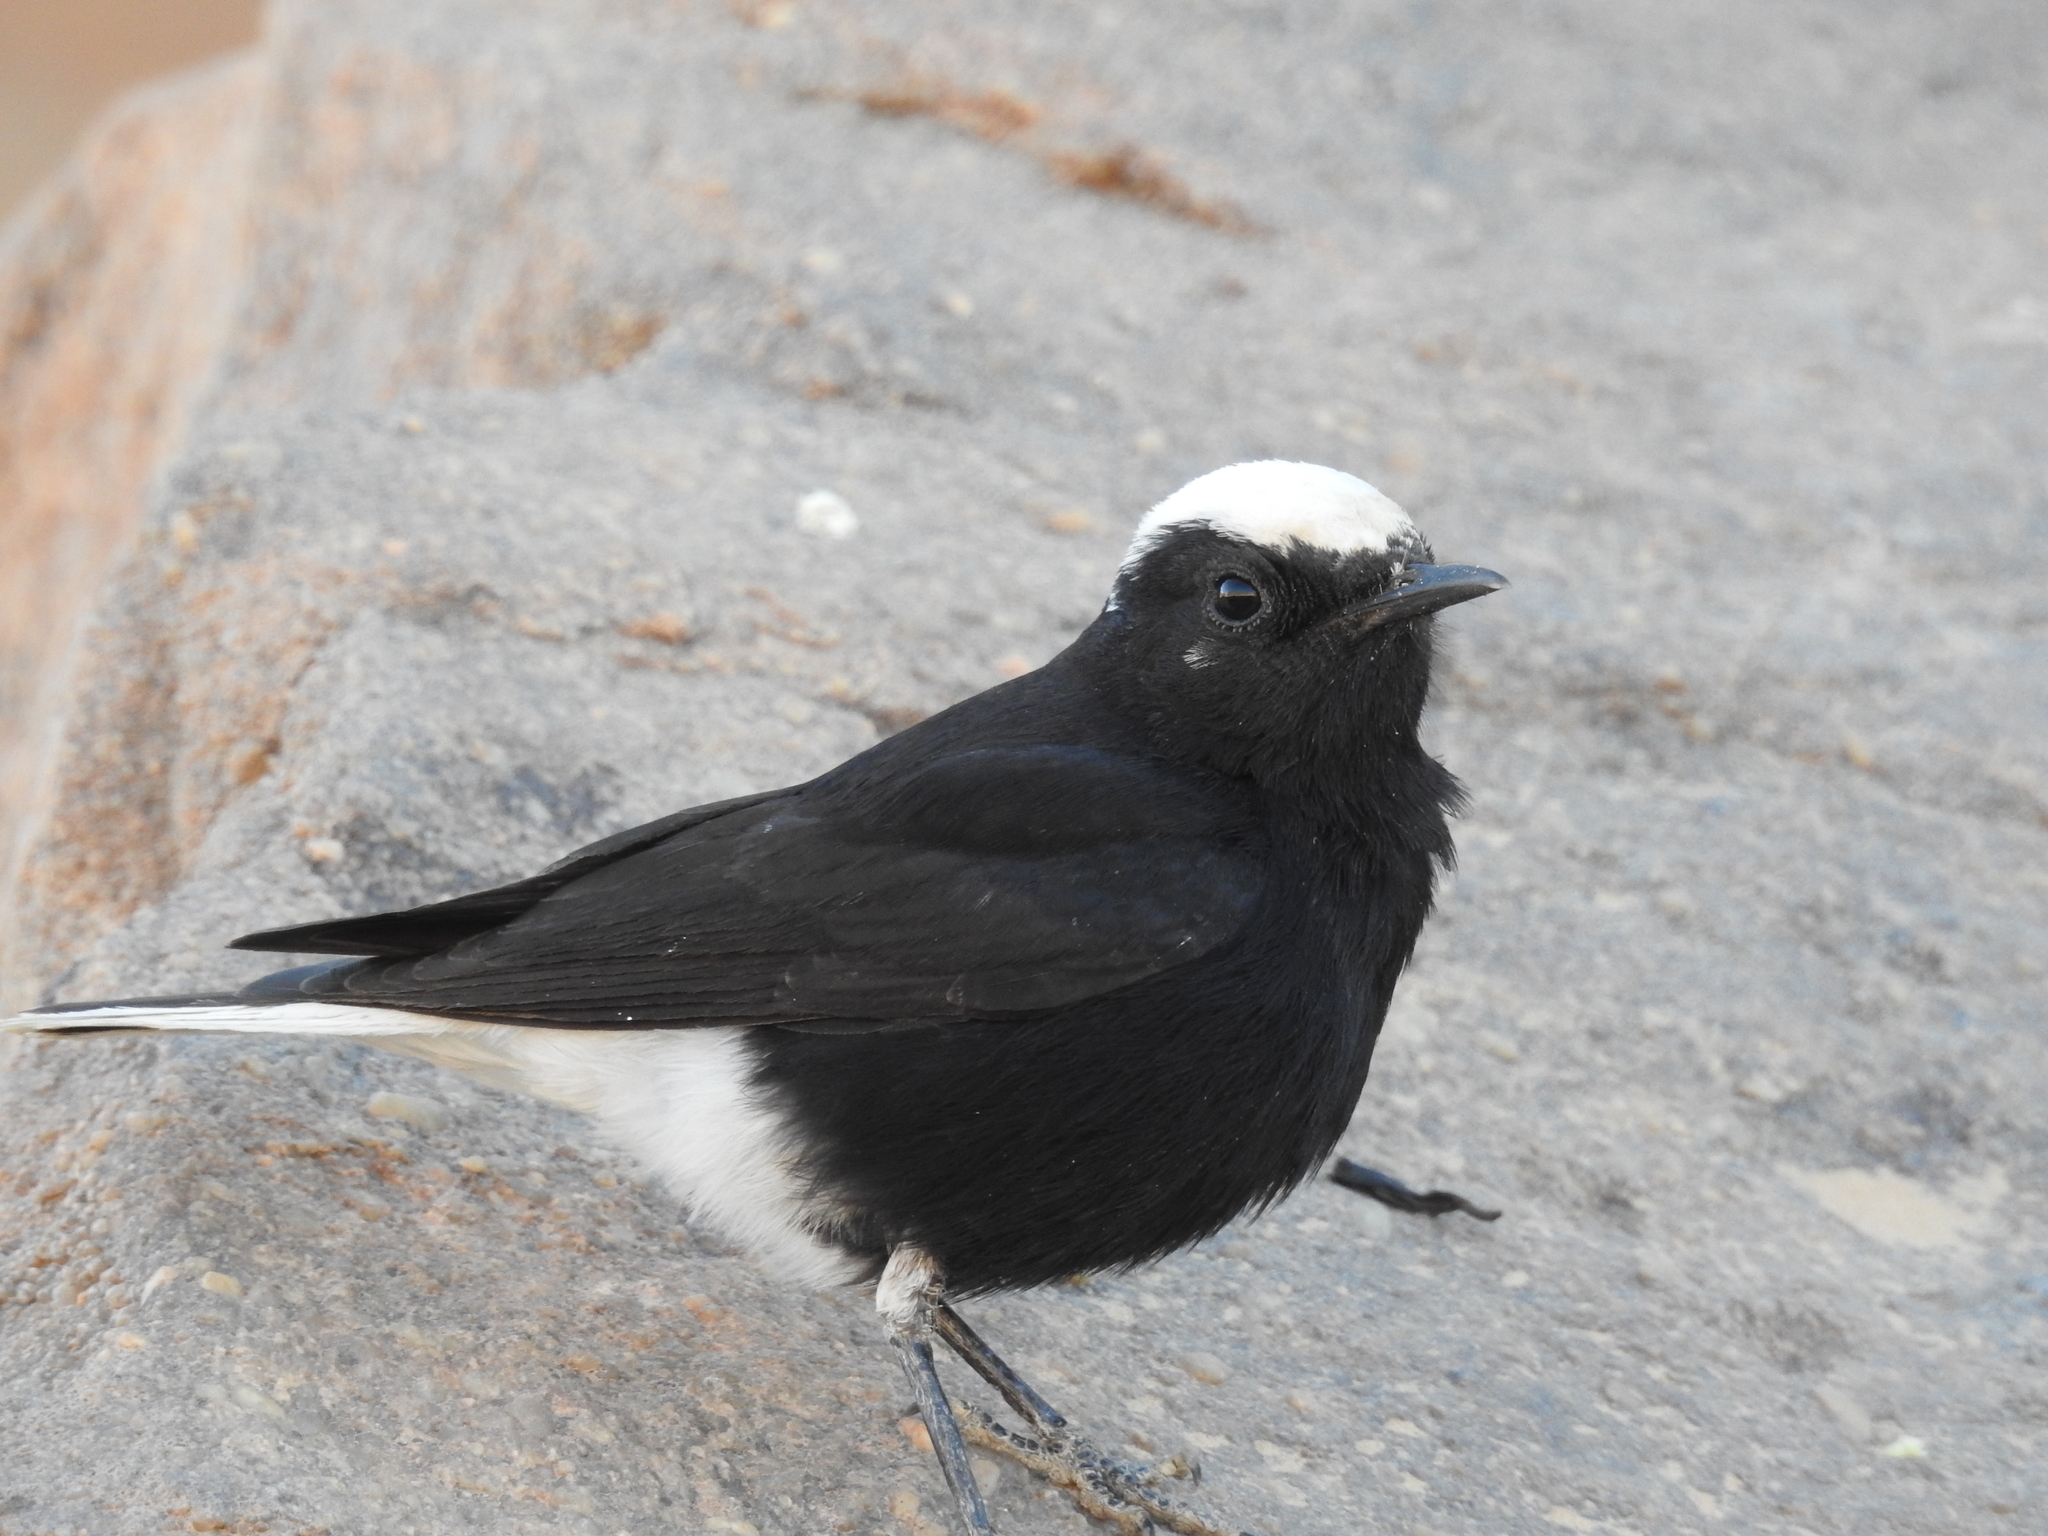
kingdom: Animalia
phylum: Chordata
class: Aves
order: Passeriformes
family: Muscicapidae
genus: Oenanthe
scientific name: Oenanthe leucopyga
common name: White-crowned wheatear
